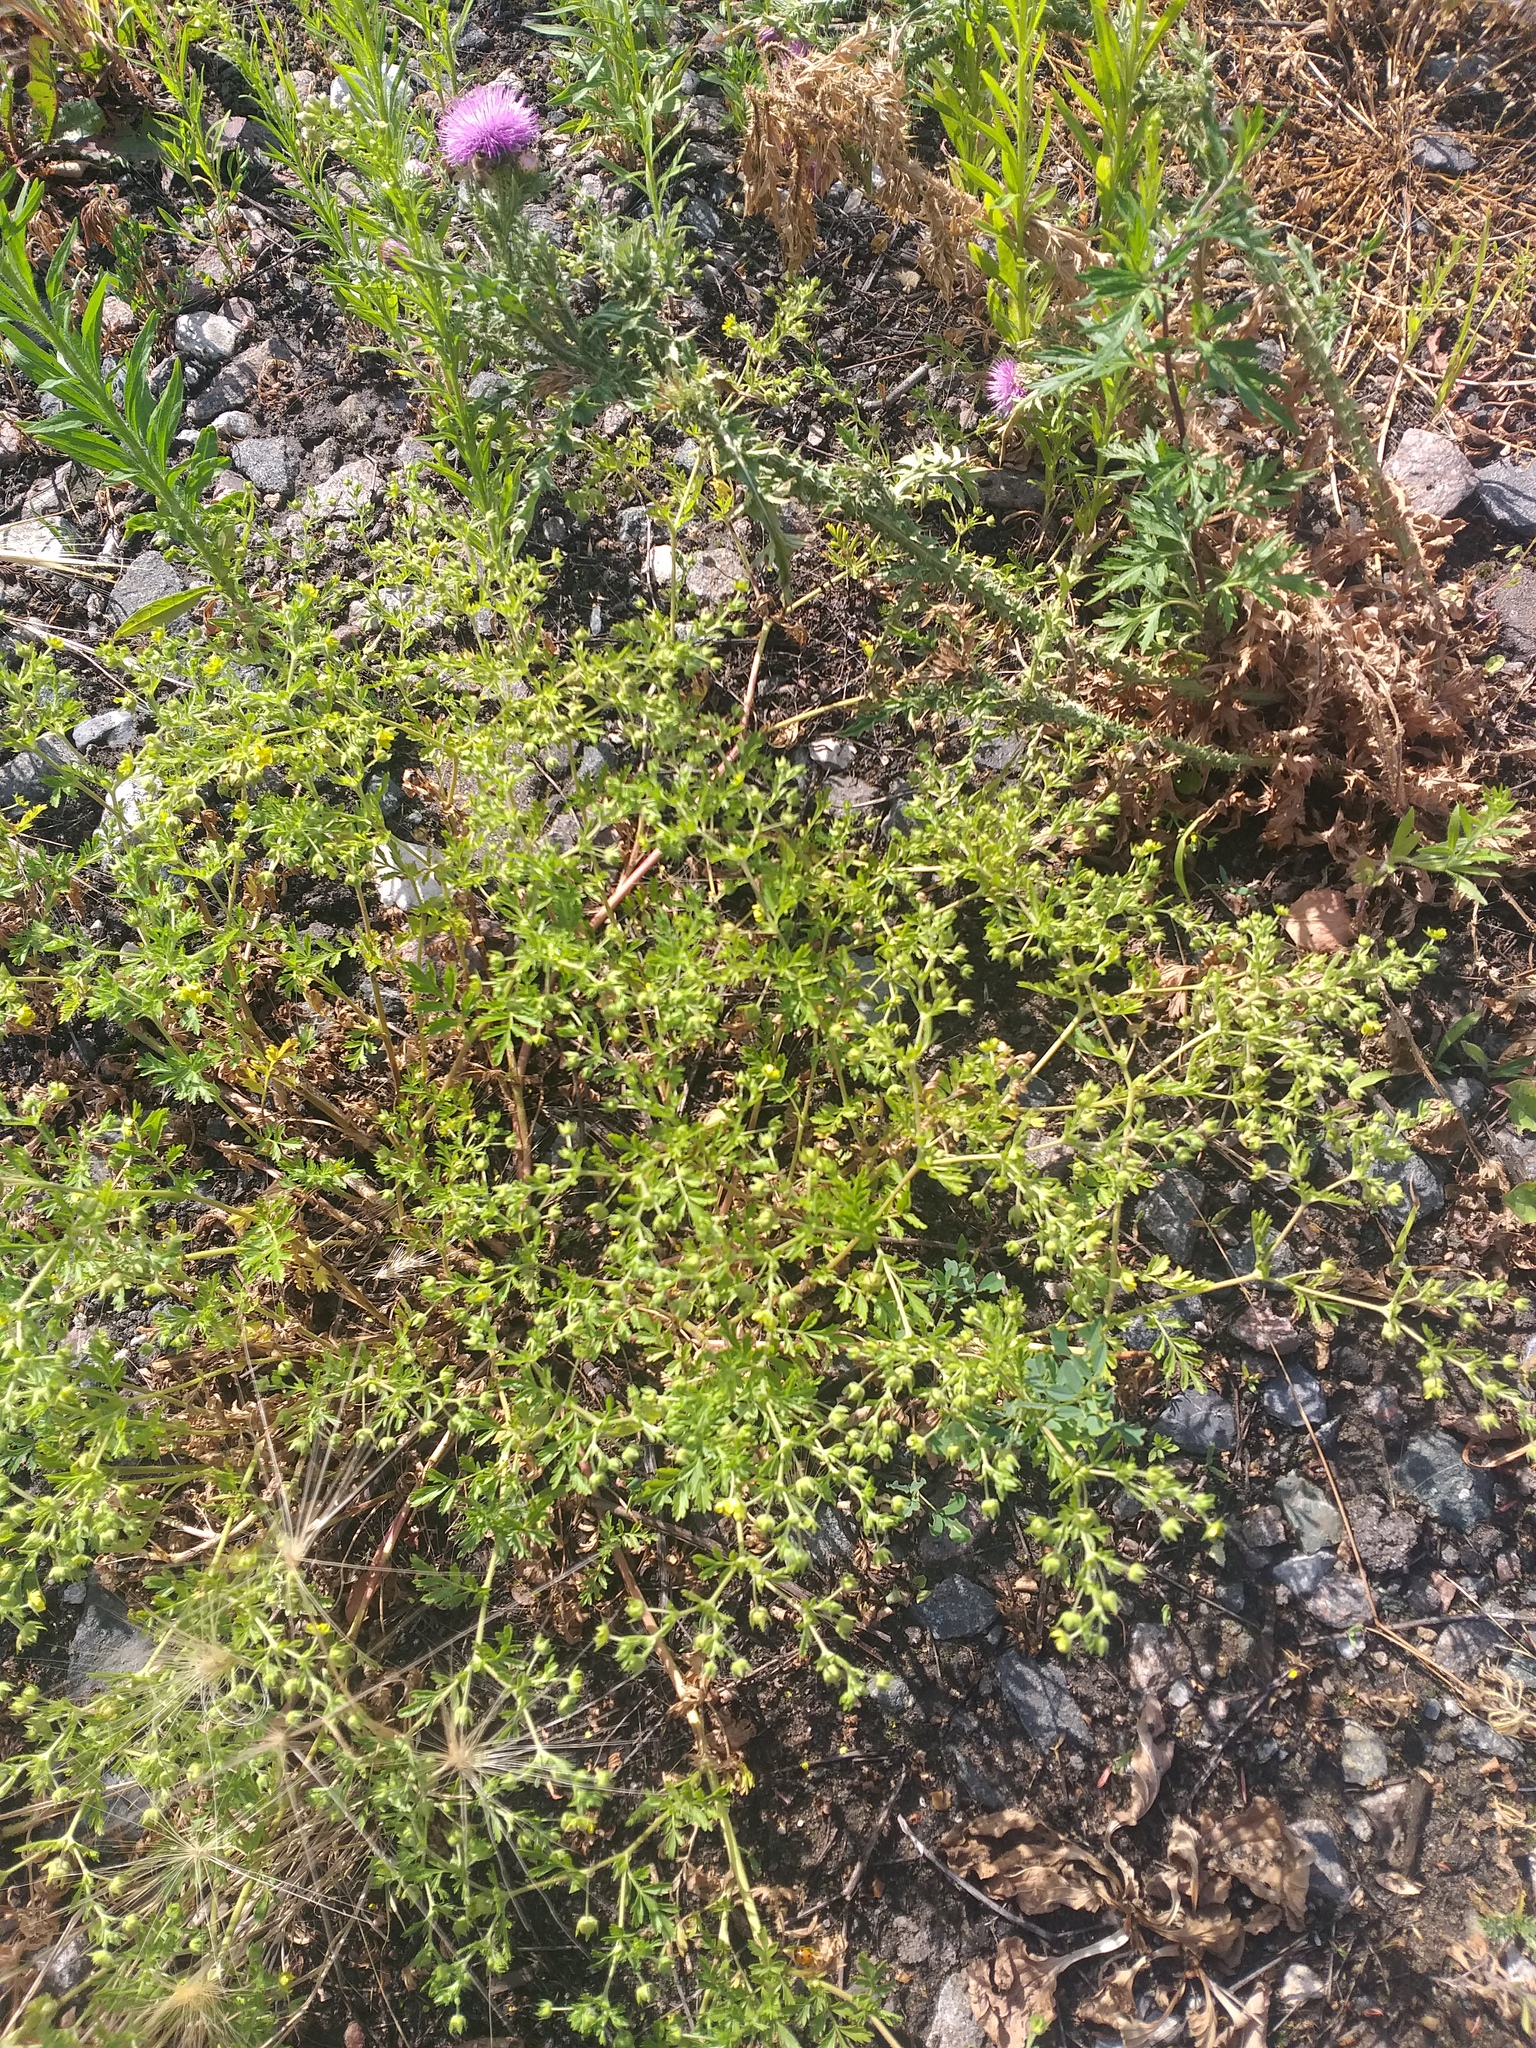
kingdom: Plantae
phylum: Tracheophyta
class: Magnoliopsida
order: Rosales
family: Rosaceae
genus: Potentilla
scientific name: Potentilla supina
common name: Prostrate cinquefoil
